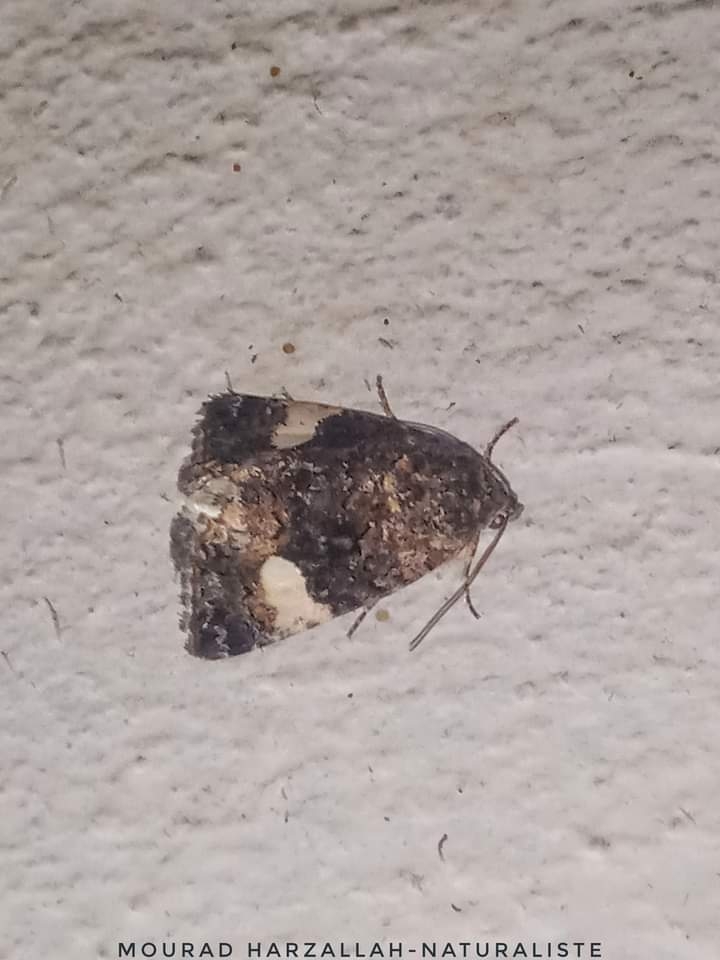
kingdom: Animalia
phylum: Arthropoda
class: Insecta
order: Lepidoptera
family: Erebidae
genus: Tyta
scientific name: Tyta luctuosa
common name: Four-spotted
